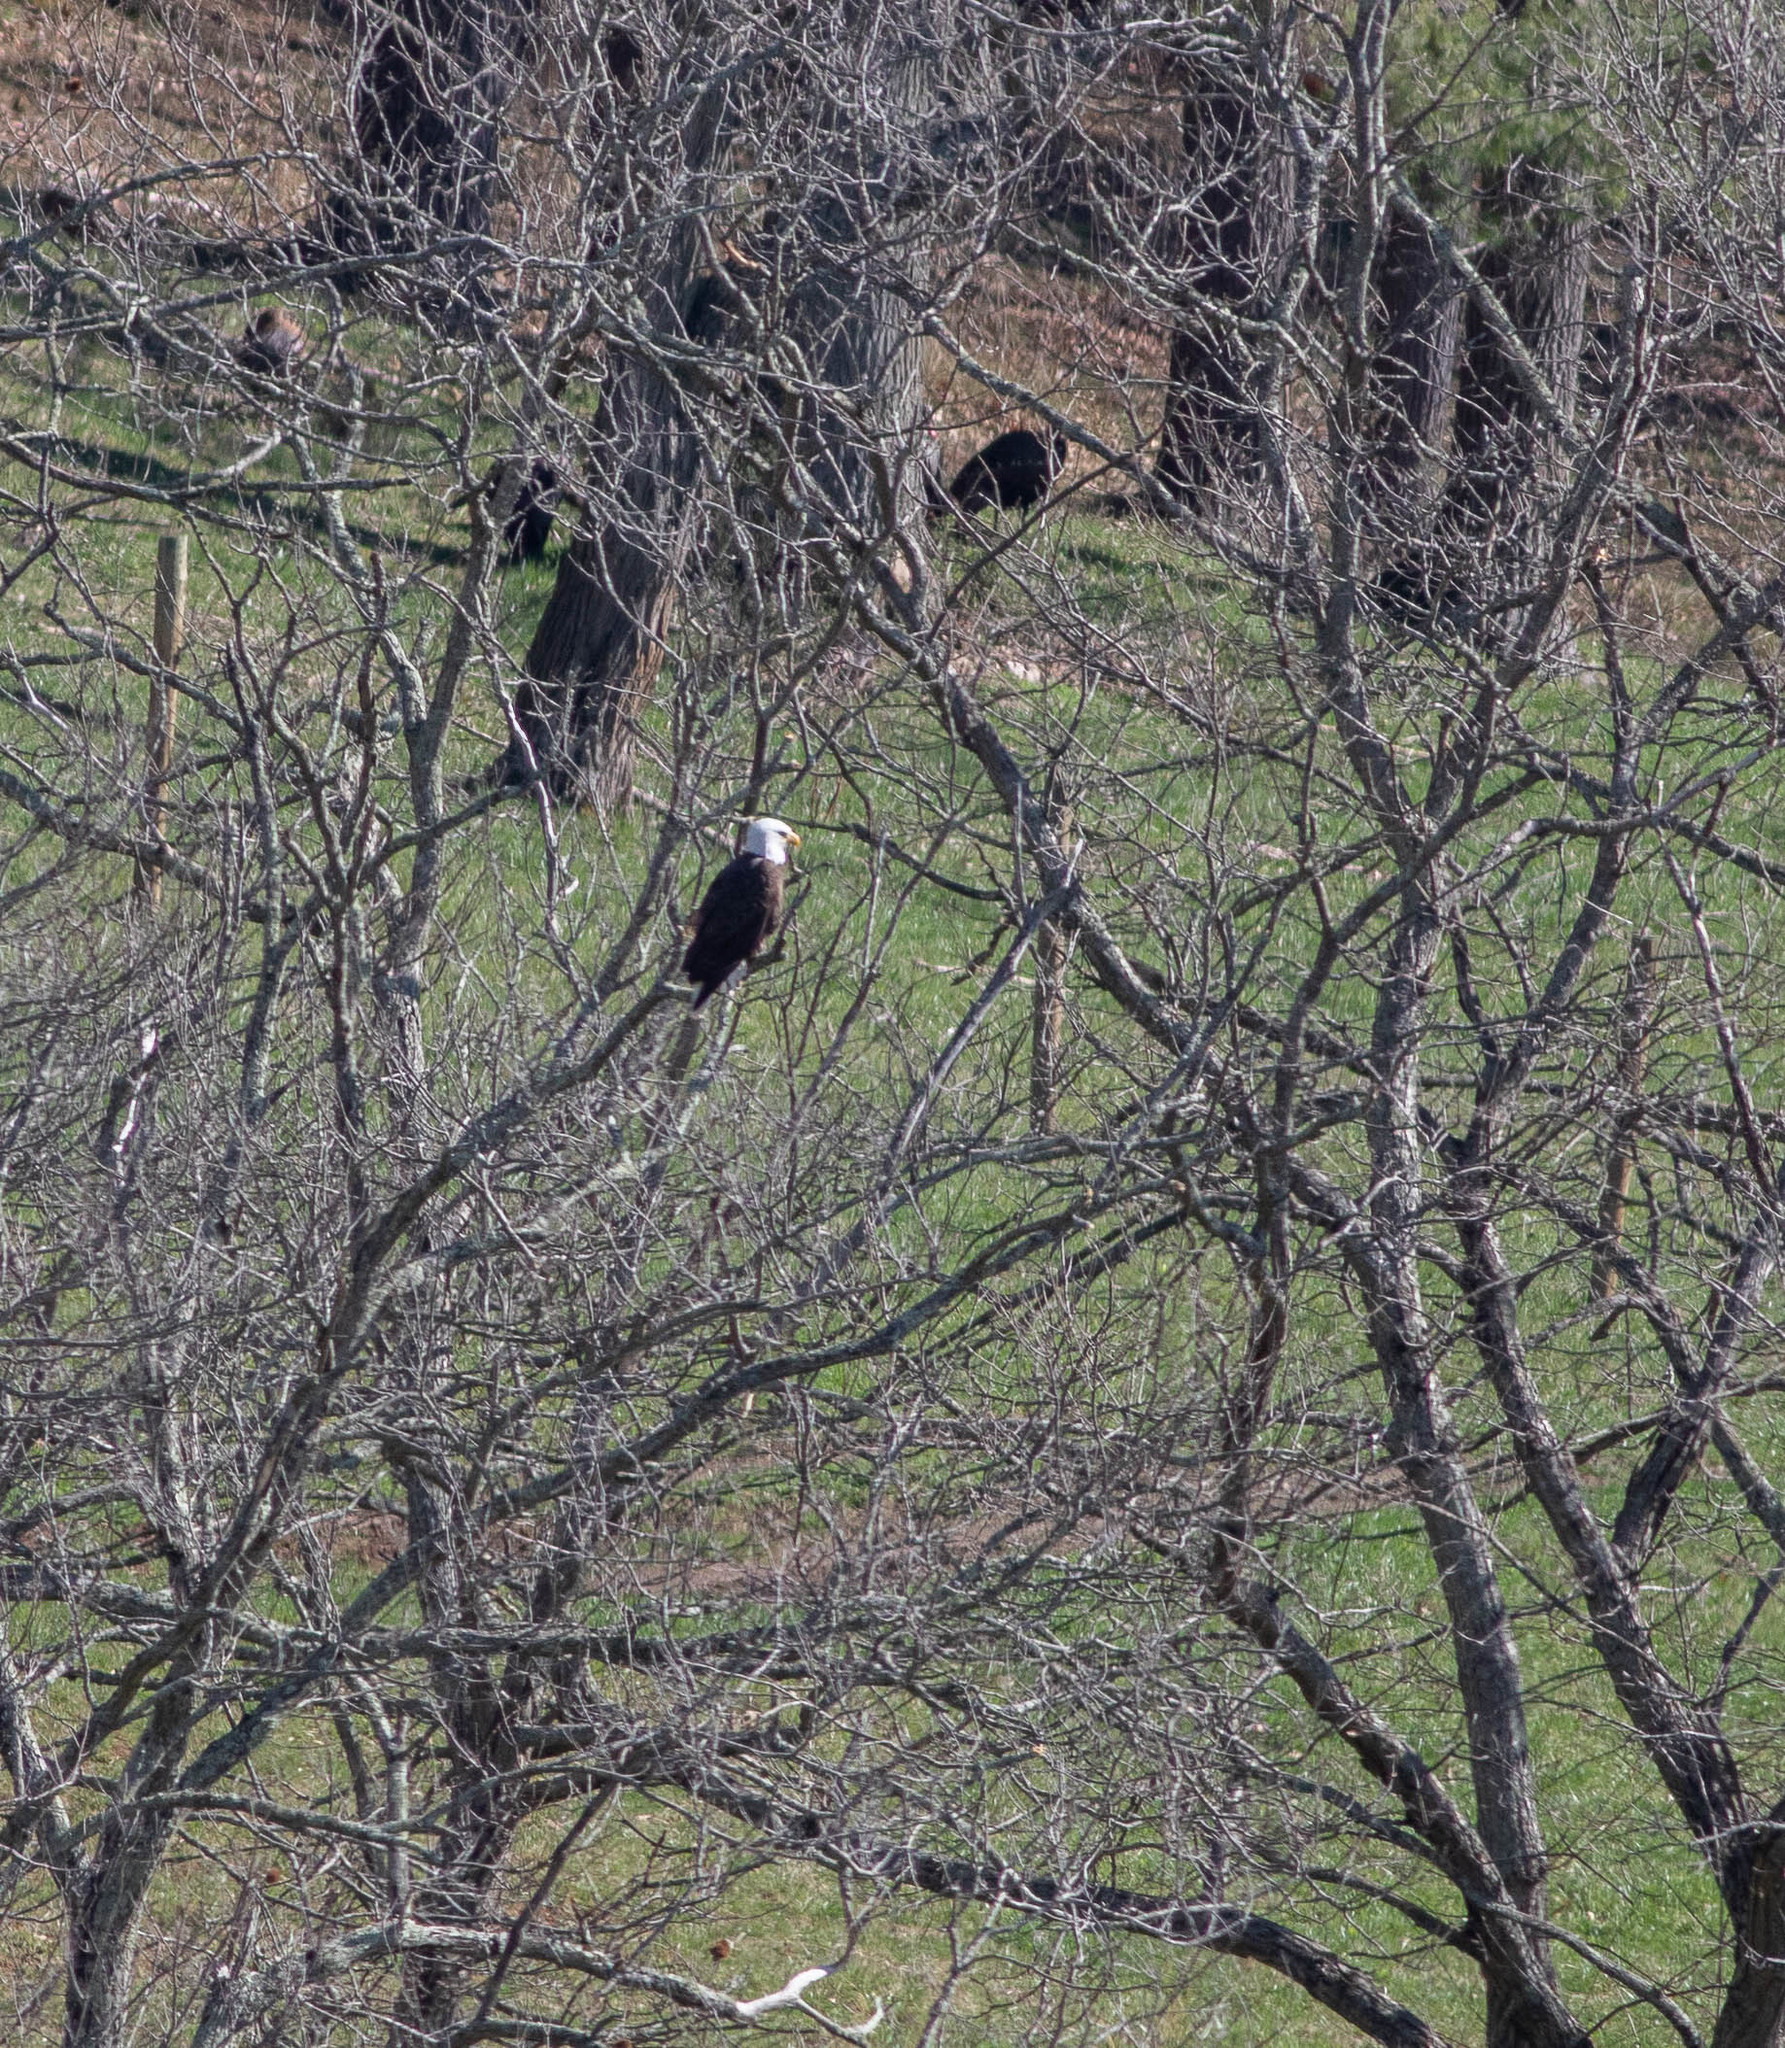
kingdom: Animalia
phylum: Chordata
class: Aves
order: Accipitriformes
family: Accipitridae
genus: Haliaeetus
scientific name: Haliaeetus leucocephalus
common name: Bald eagle
